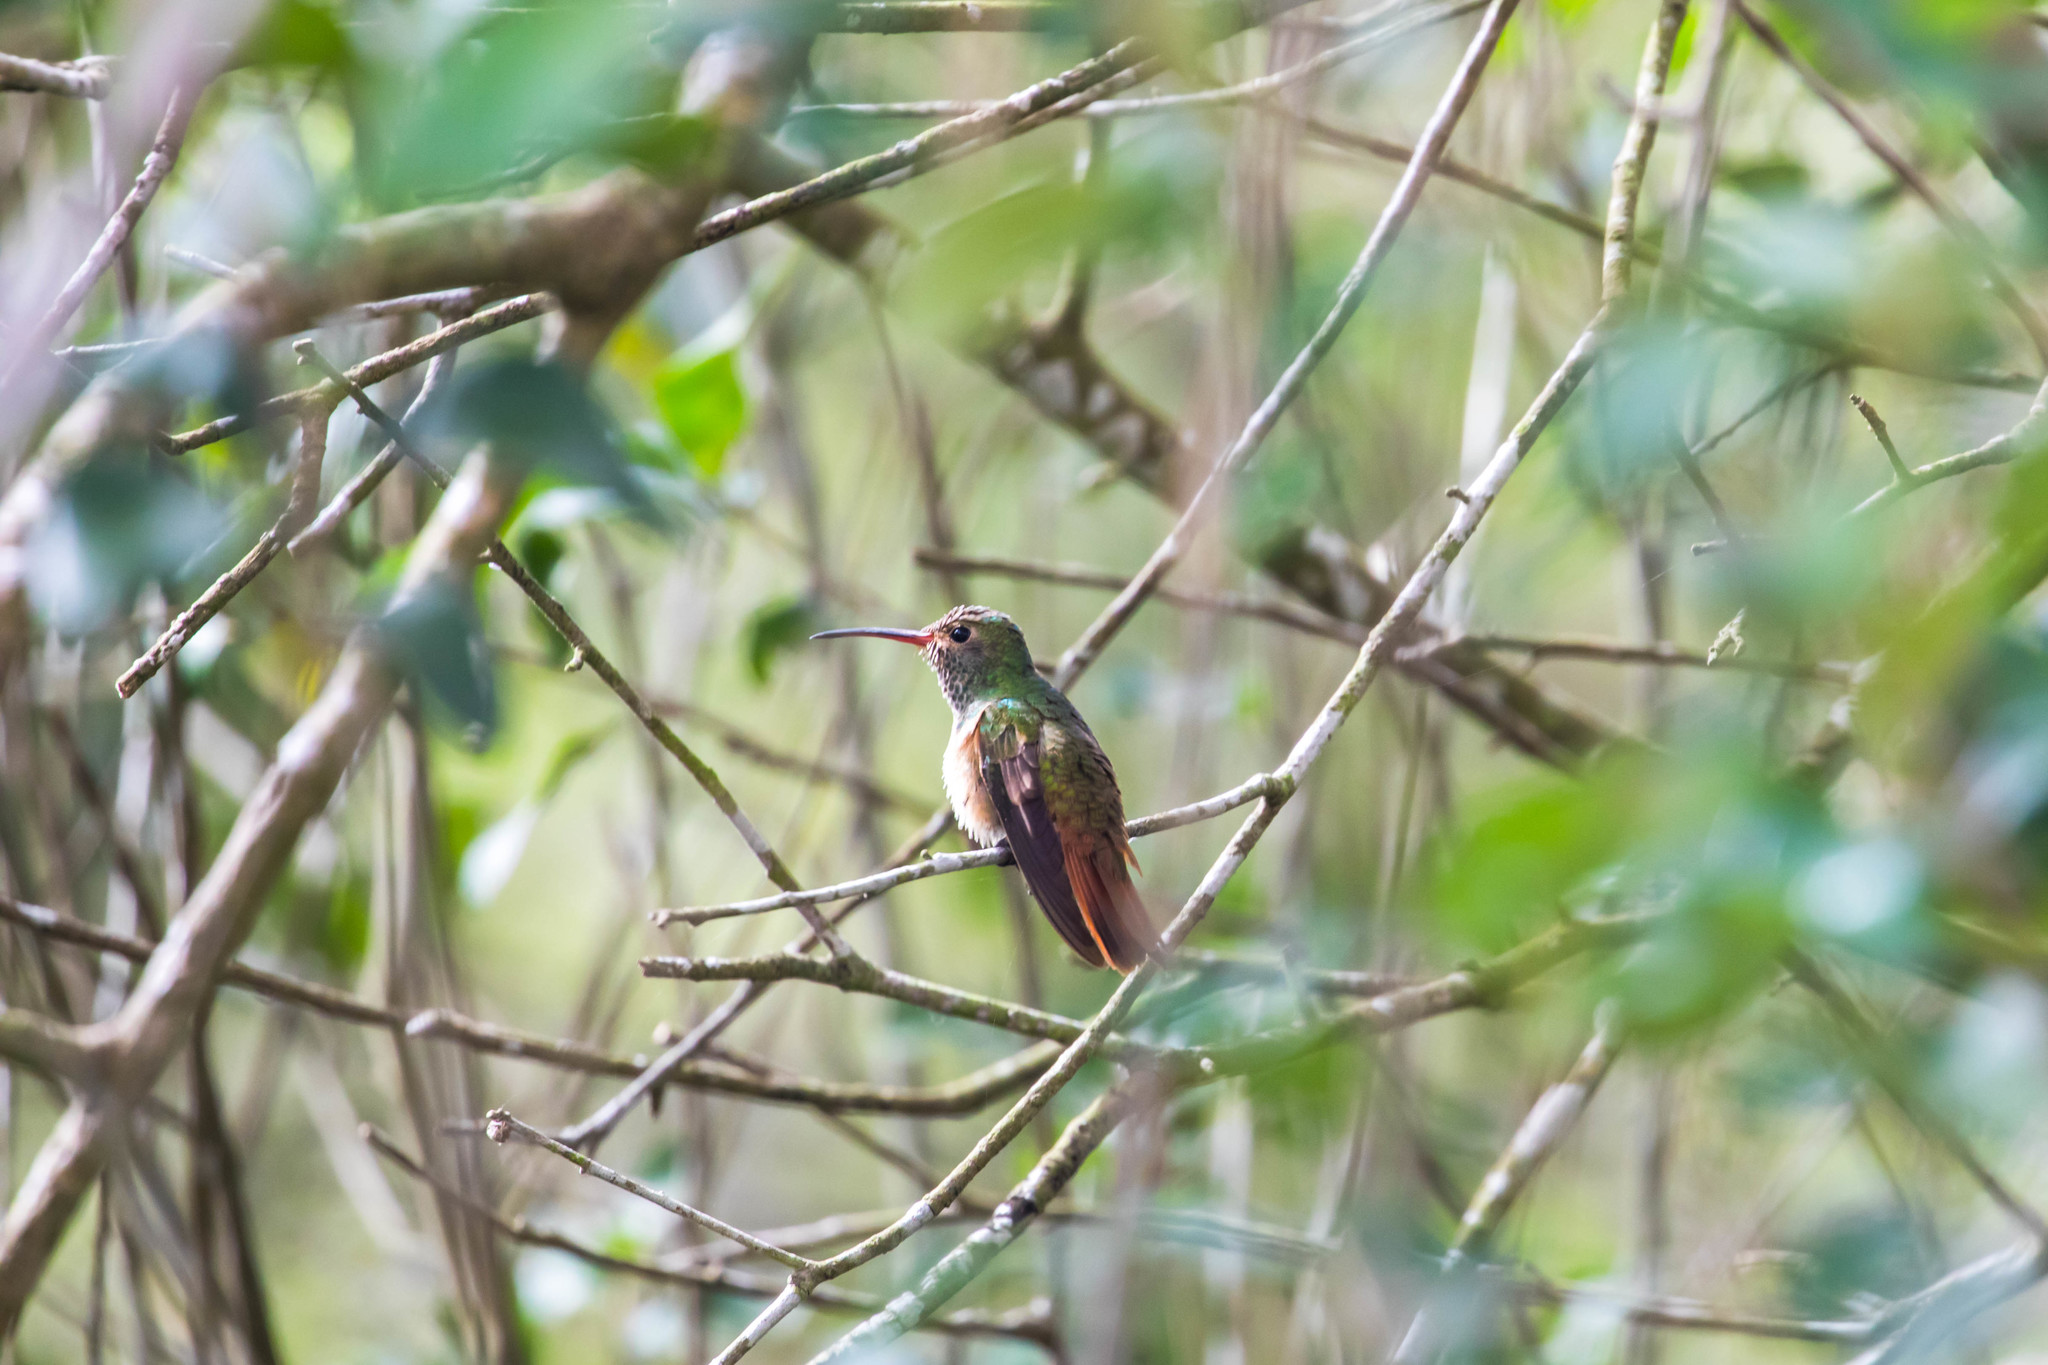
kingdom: Animalia
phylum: Chordata
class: Aves
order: Apodiformes
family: Trochilidae
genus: Amazilia
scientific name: Amazilia yucatanensis
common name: Buff-bellied hummingbird
